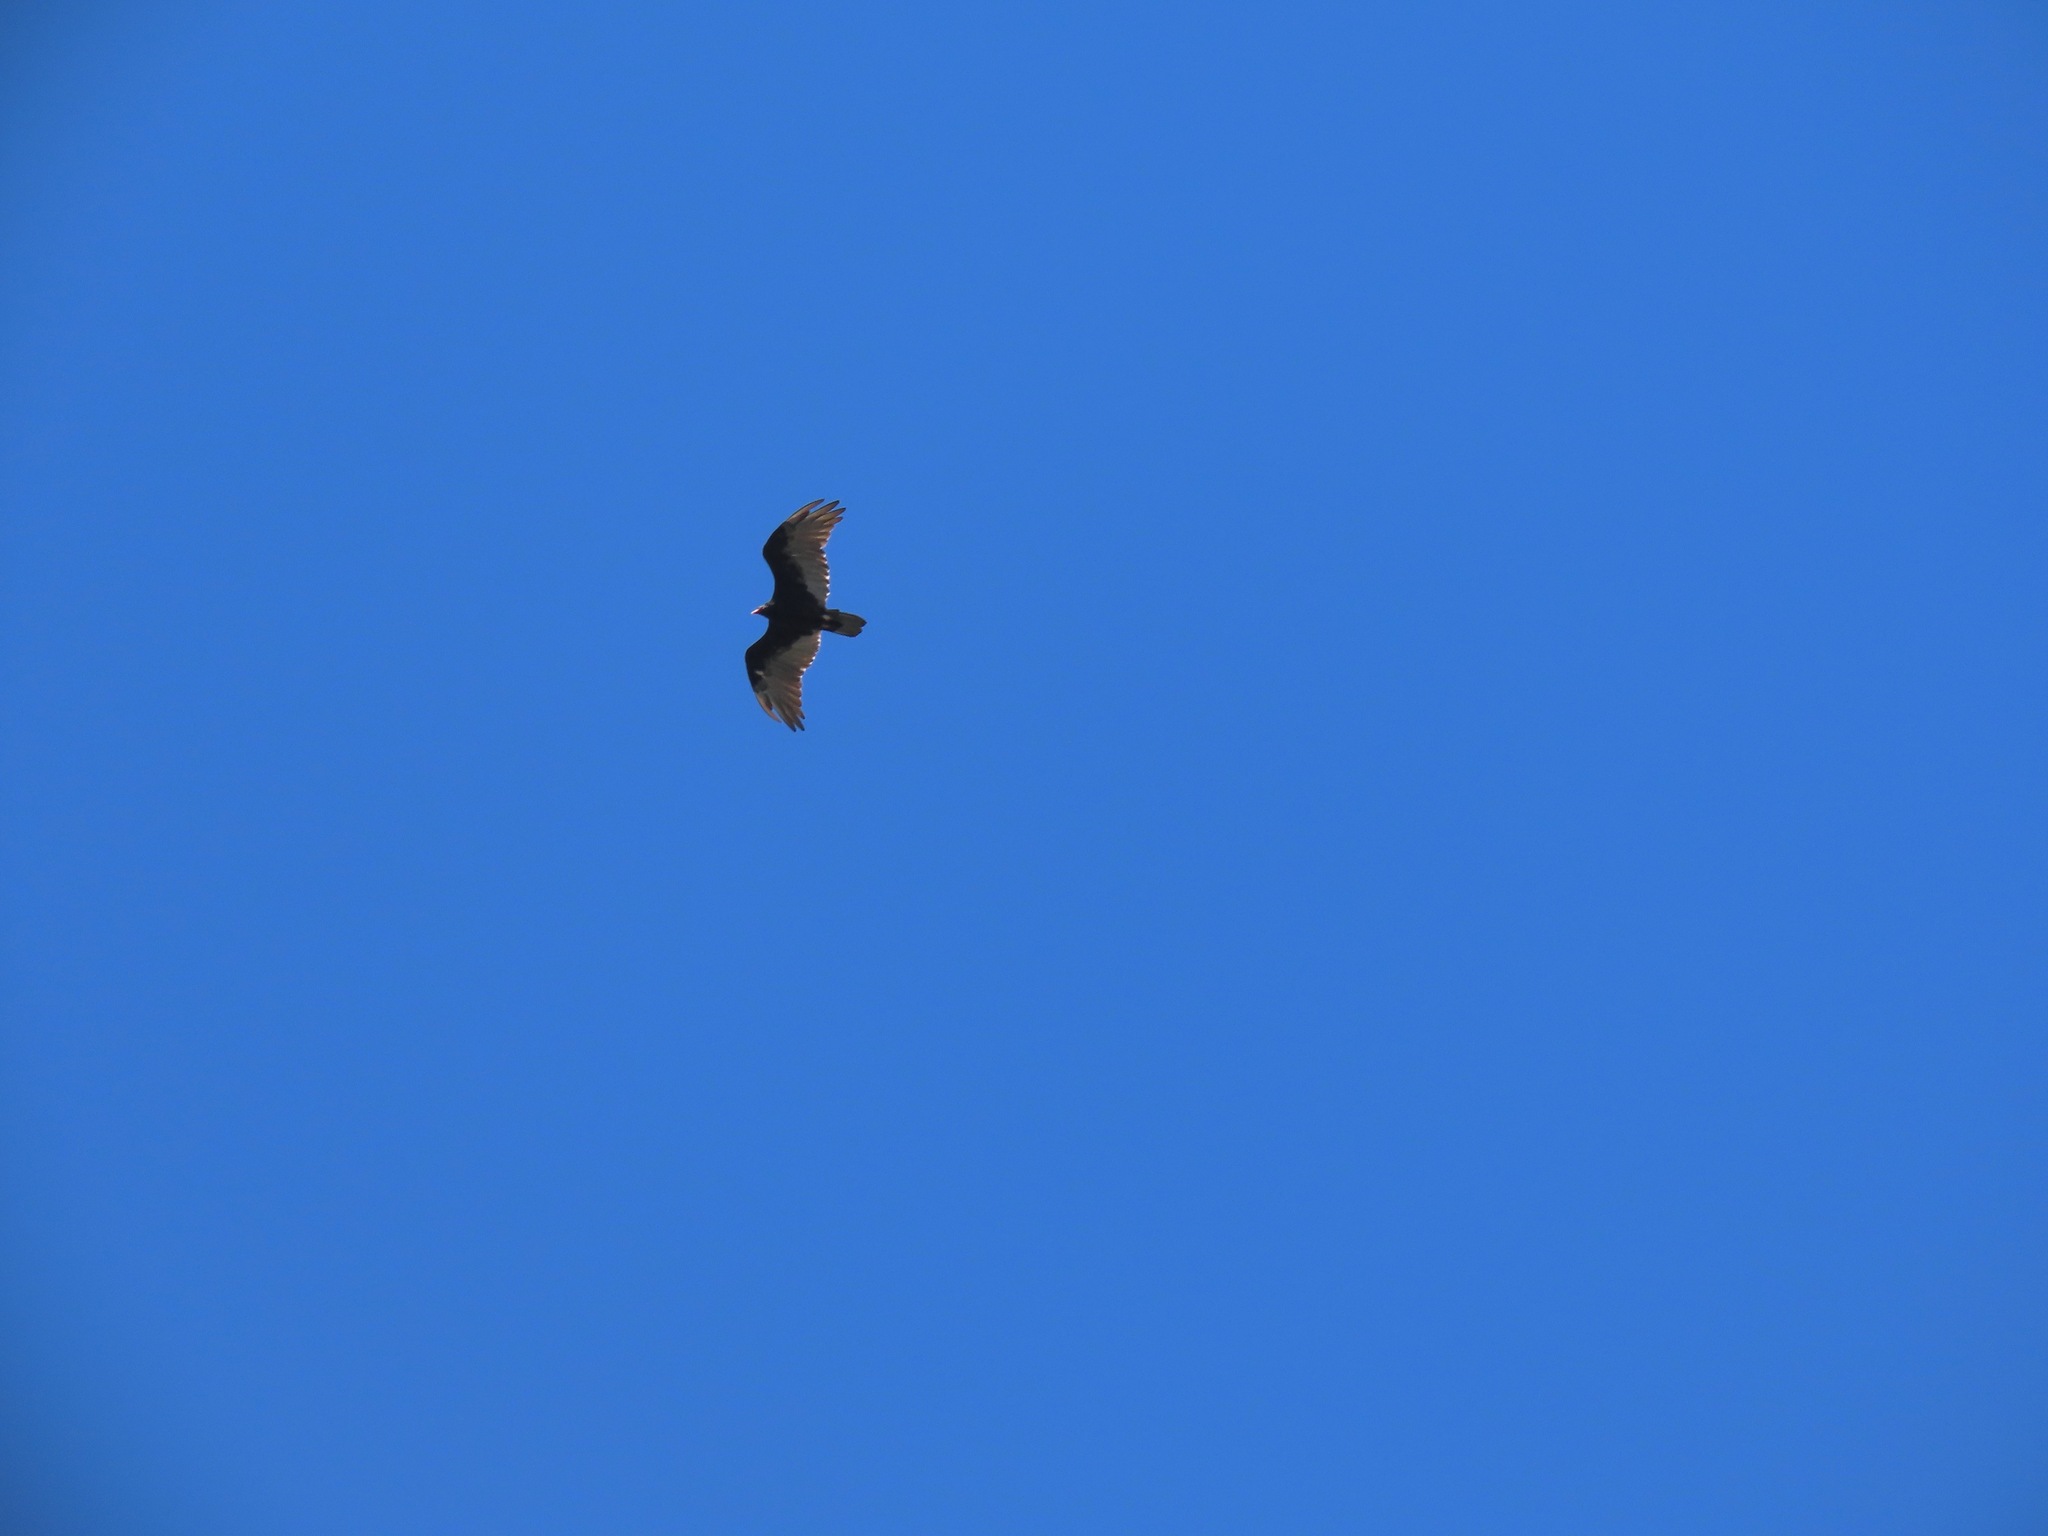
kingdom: Animalia
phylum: Chordata
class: Aves
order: Accipitriformes
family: Cathartidae
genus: Cathartes
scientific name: Cathartes aura
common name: Turkey vulture
